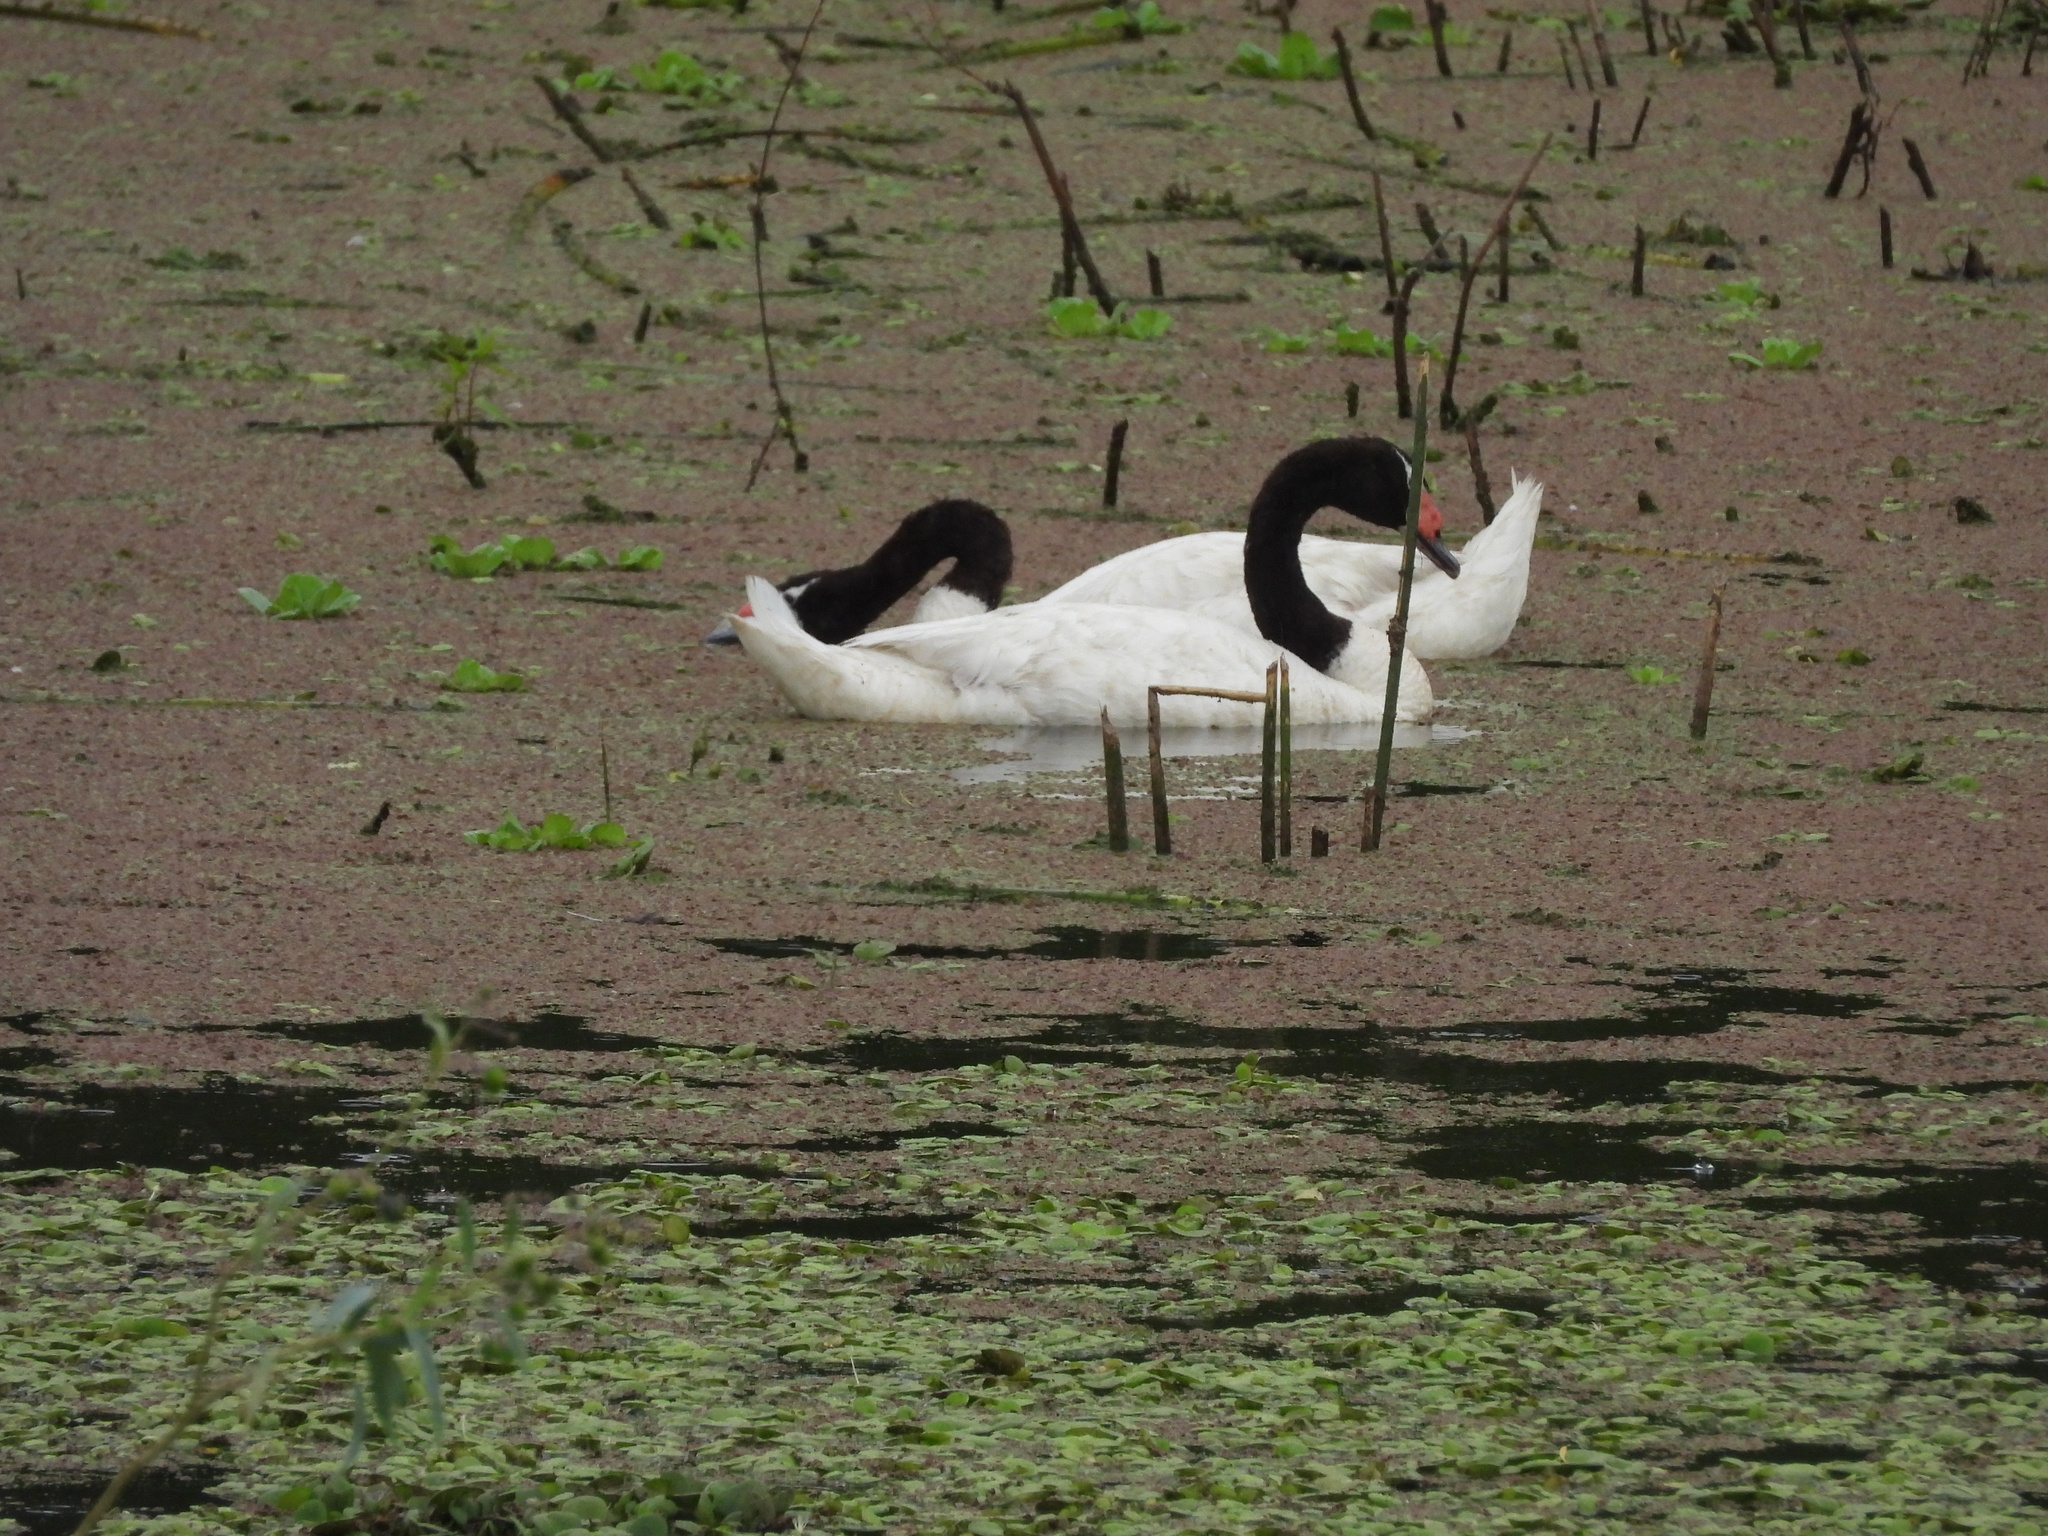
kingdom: Animalia
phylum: Chordata
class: Aves
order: Anseriformes
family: Anatidae
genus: Cygnus
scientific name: Cygnus melancoryphus
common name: Black-necked swan
